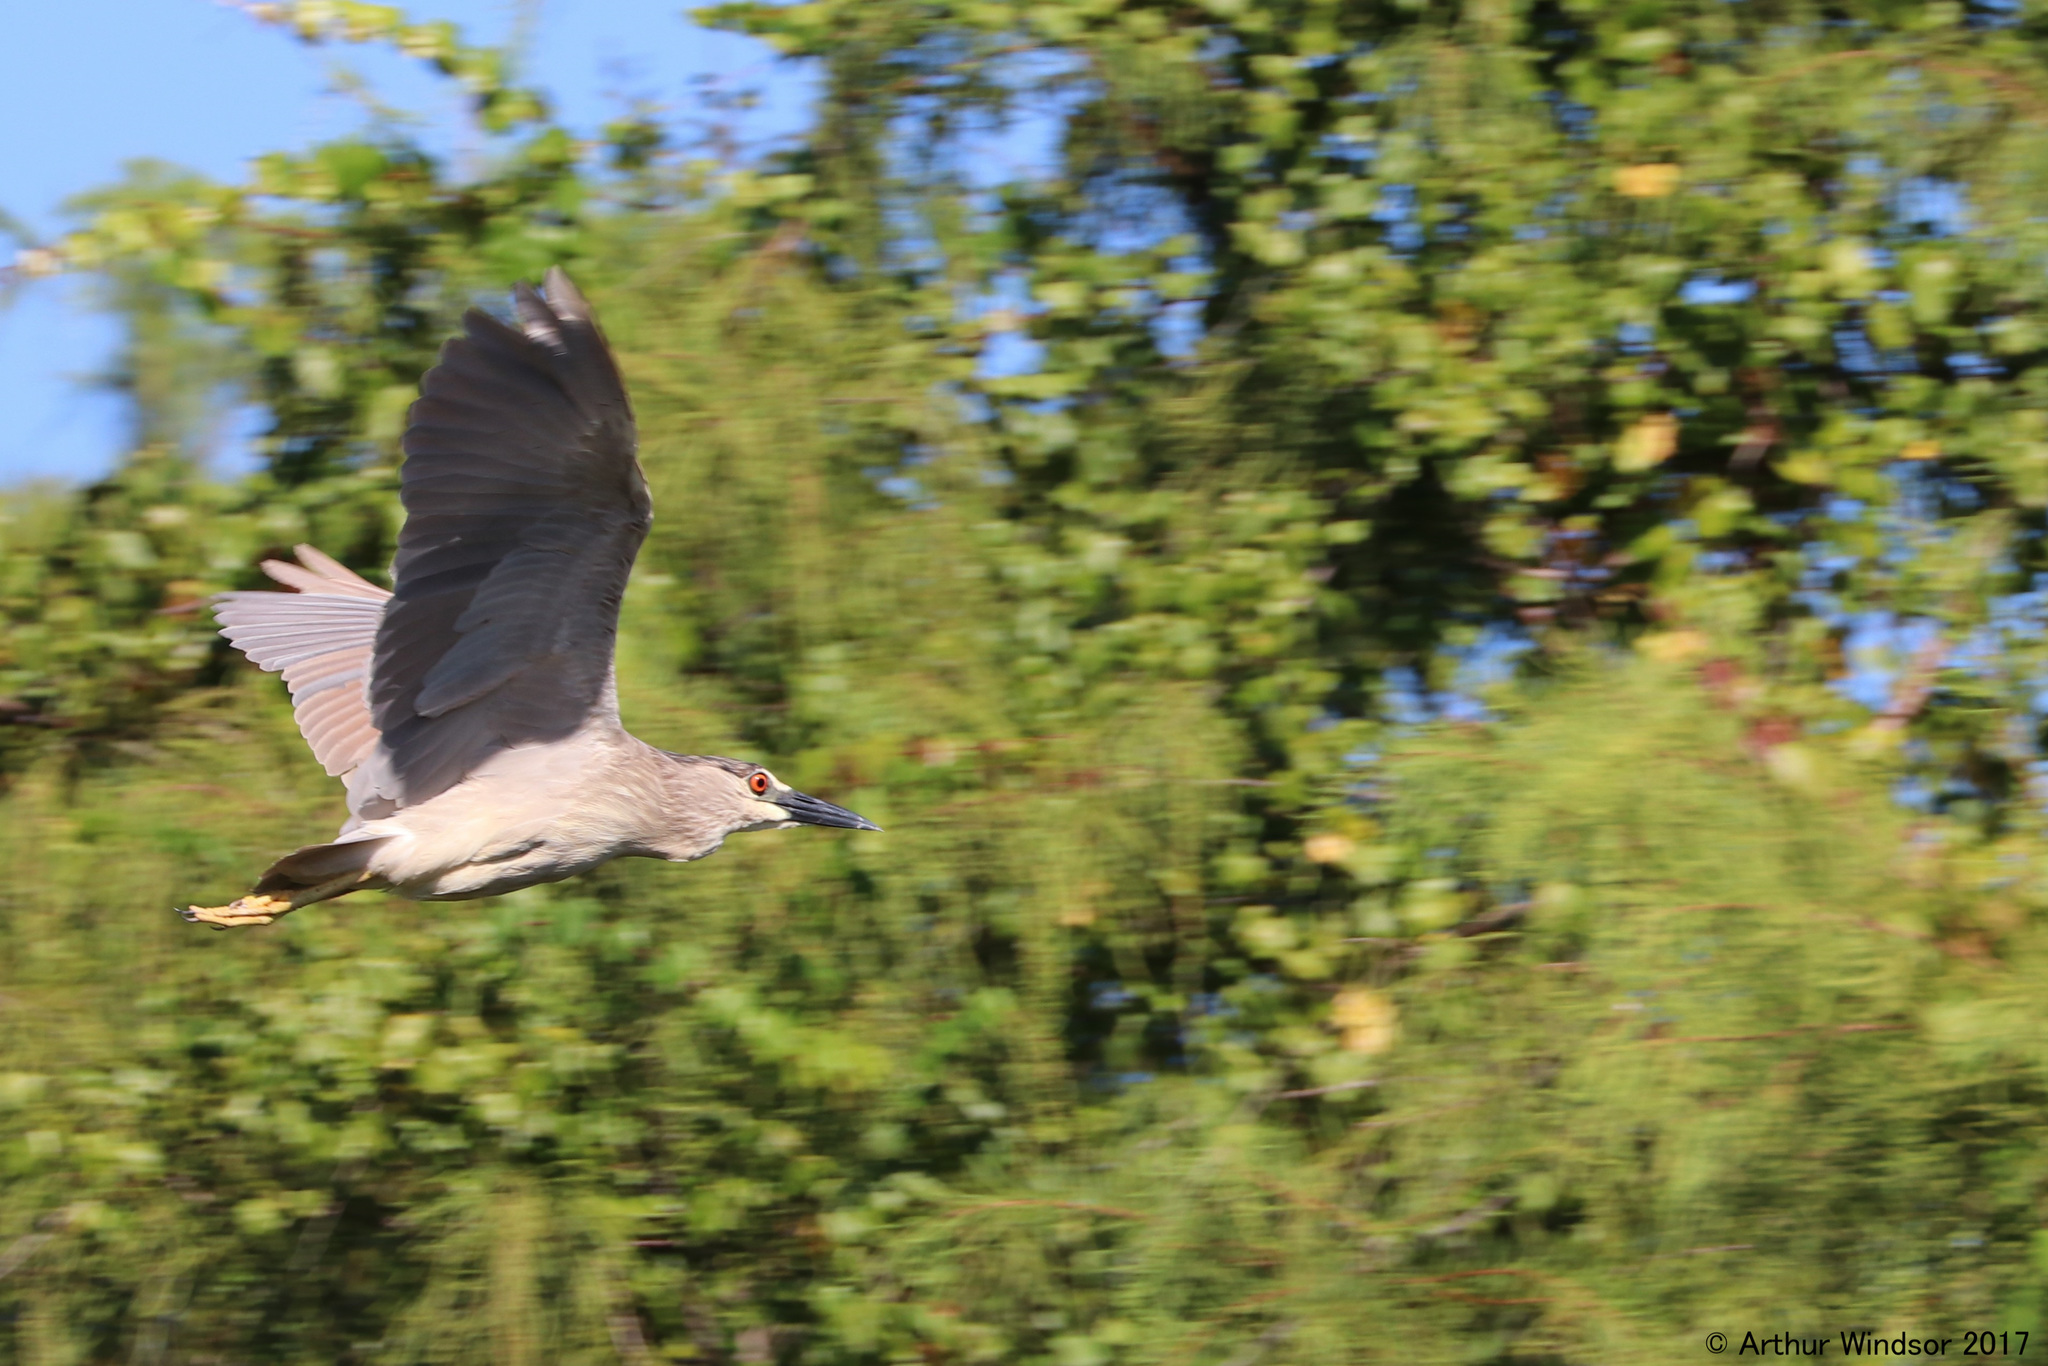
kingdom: Animalia
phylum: Chordata
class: Aves
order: Pelecaniformes
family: Ardeidae
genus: Nycticorax
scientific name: Nycticorax nycticorax
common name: Black-crowned night heron
